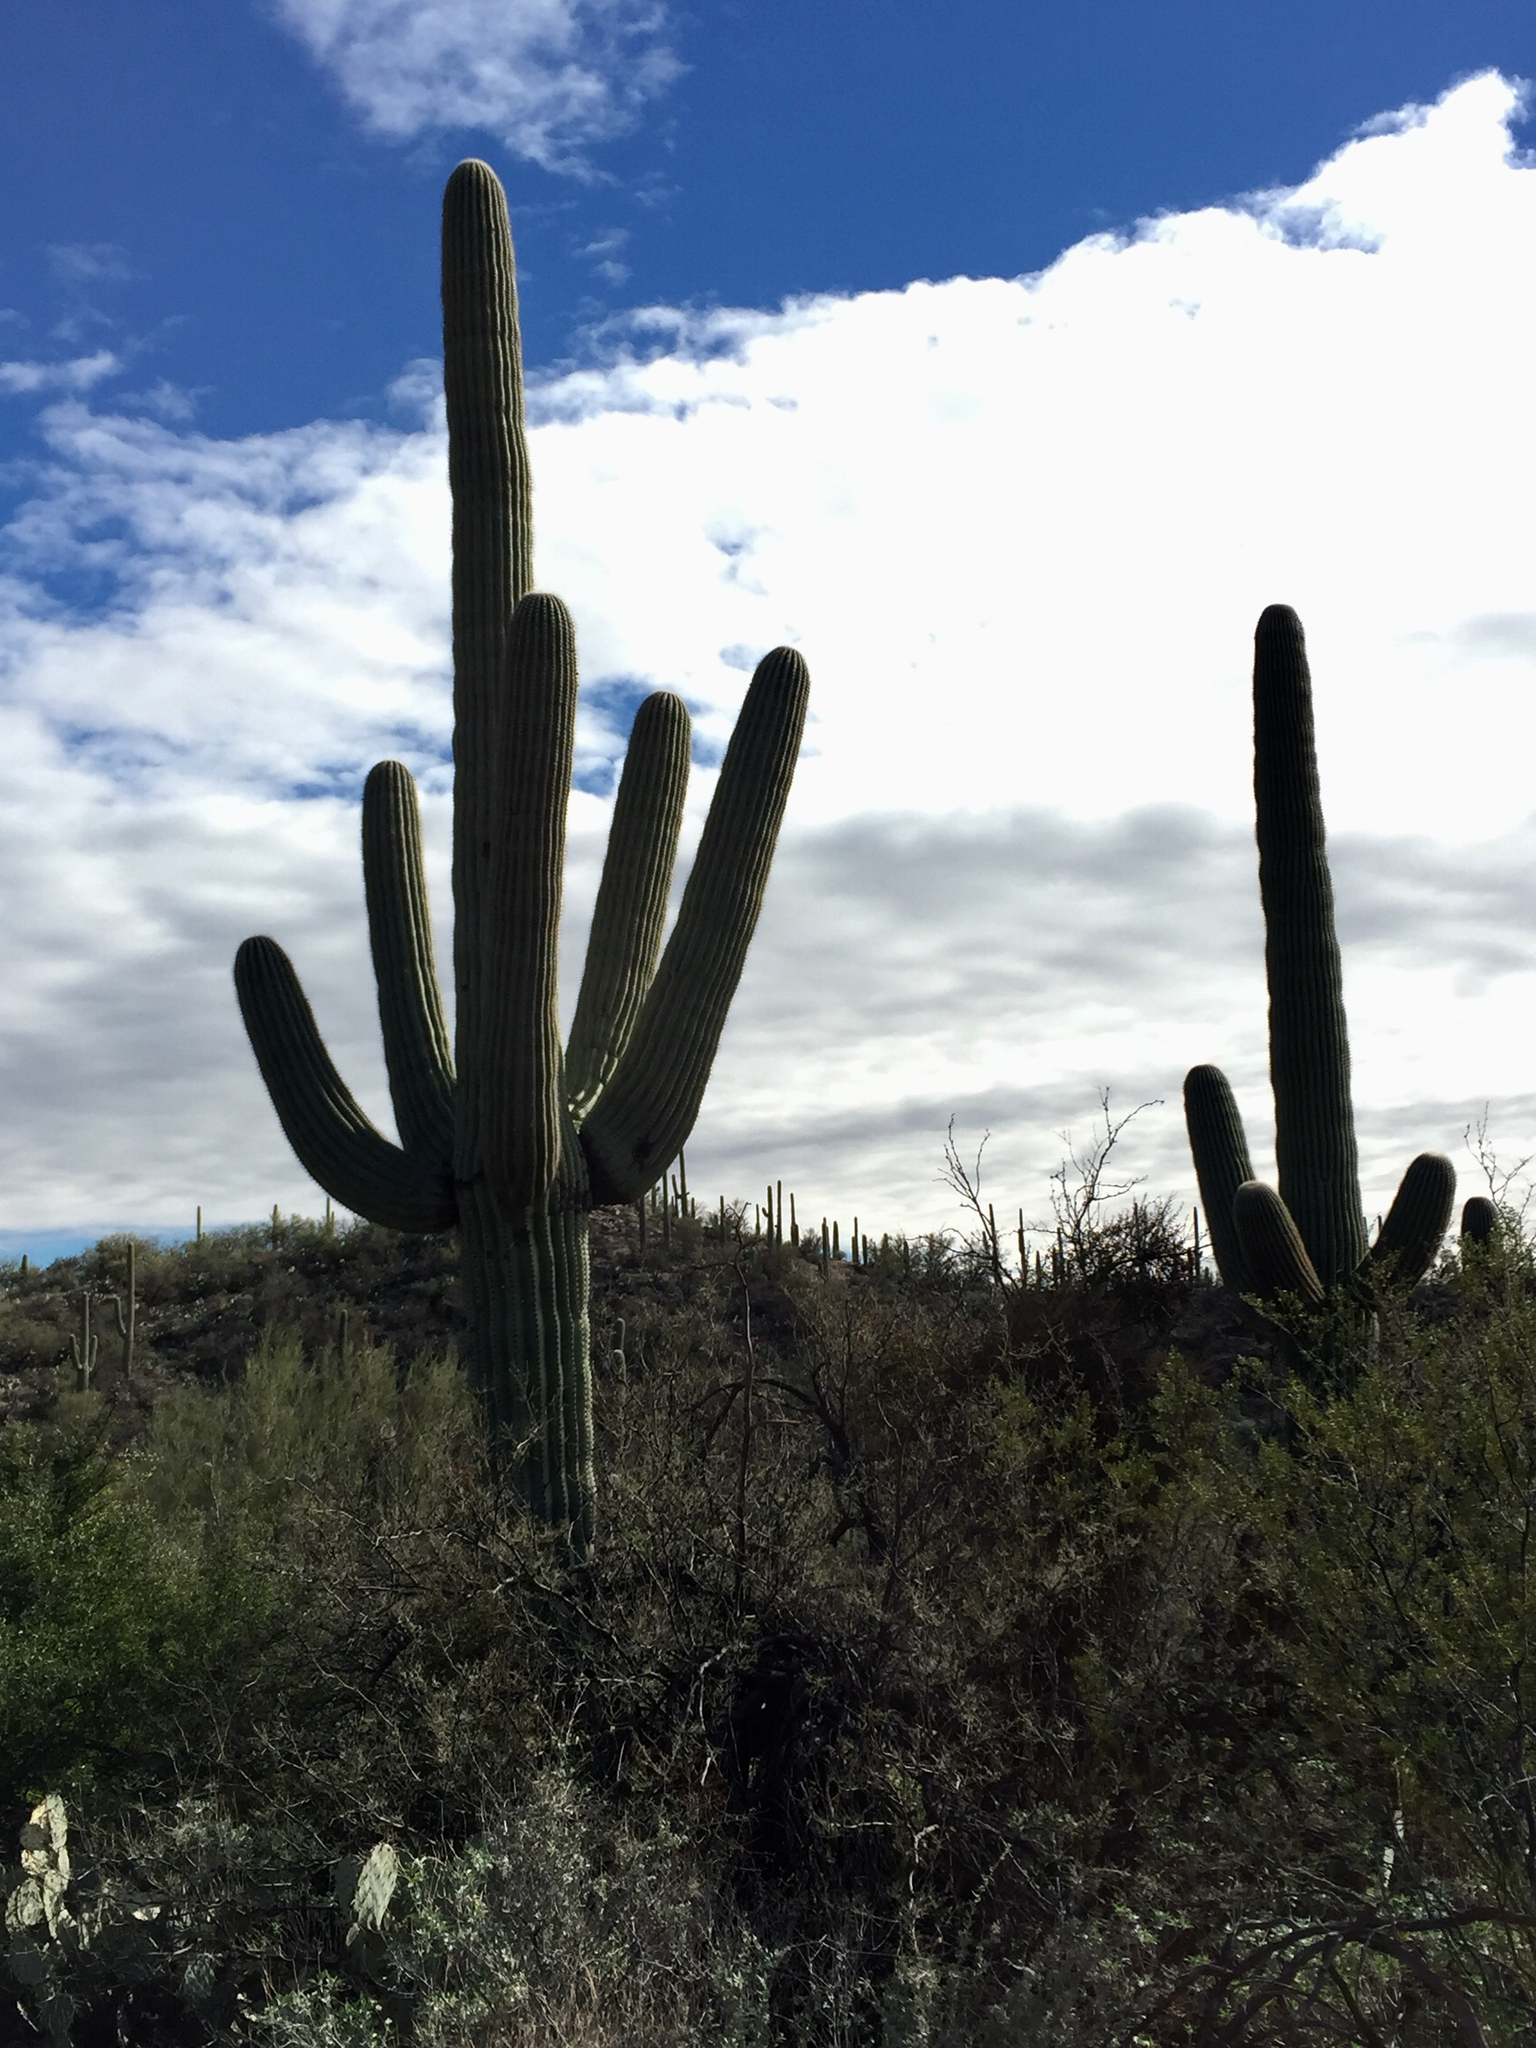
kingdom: Plantae
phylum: Tracheophyta
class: Magnoliopsida
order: Caryophyllales
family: Cactaceae
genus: Carnegiea
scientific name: Carnegiea gigantea
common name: Saguaro
